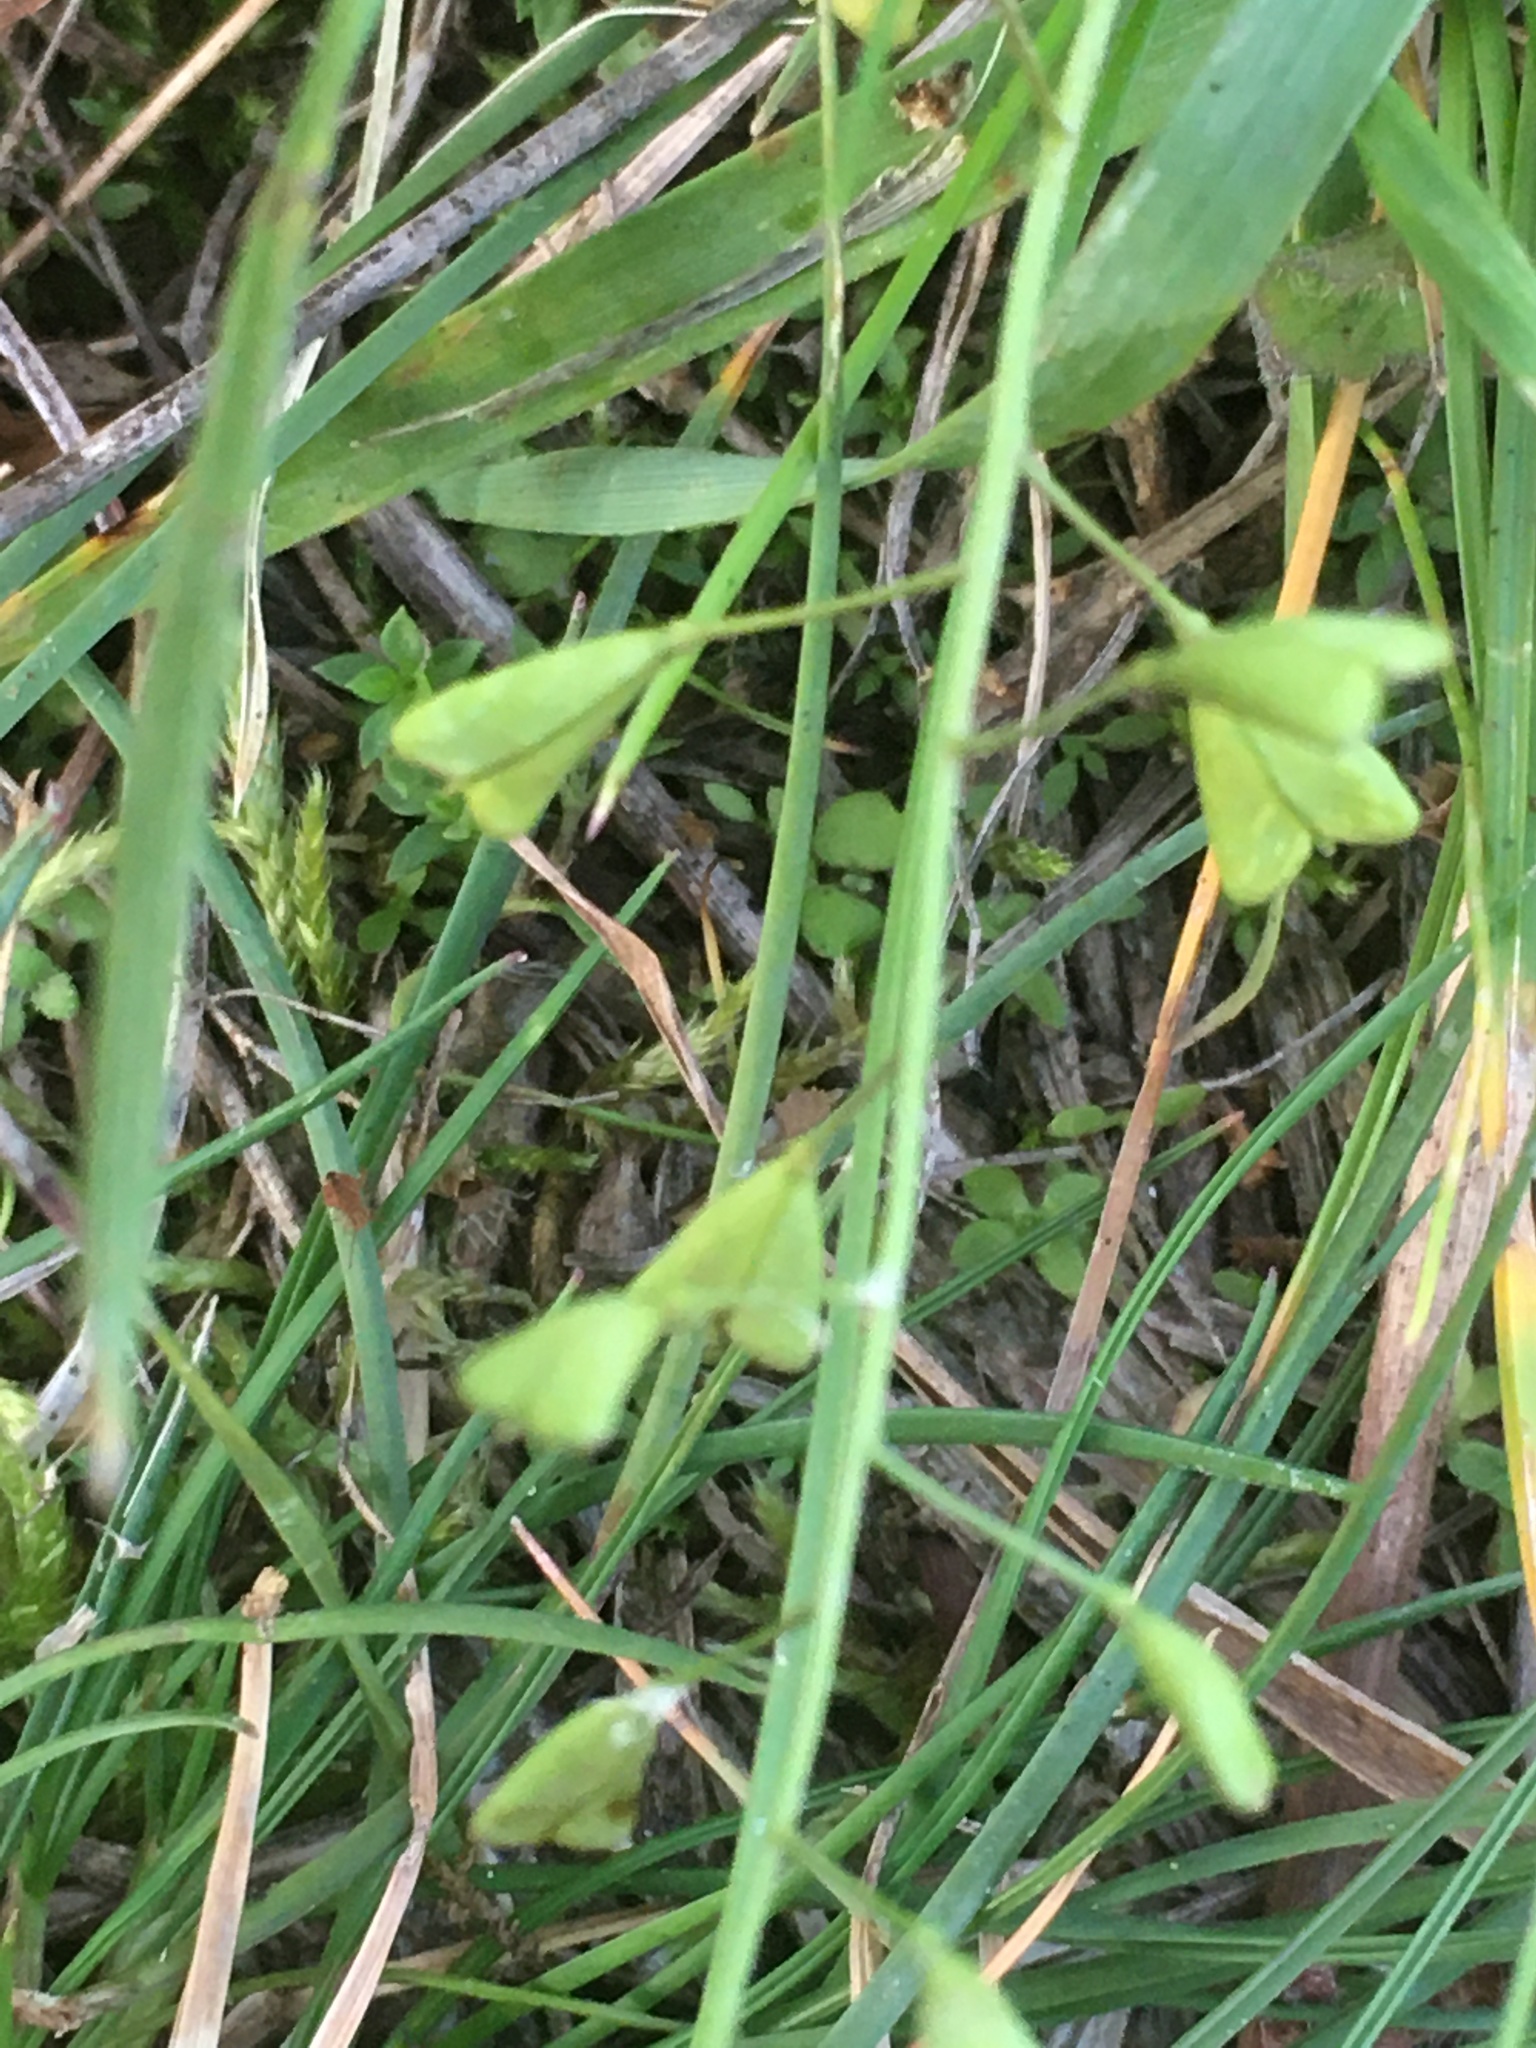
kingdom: Plantae
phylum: Tracheophyta
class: Magnoliopsida
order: Brassicales
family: Brassicaceae
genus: Capsella
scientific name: Capsella bursa-pastoris
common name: Shepherd's purse
